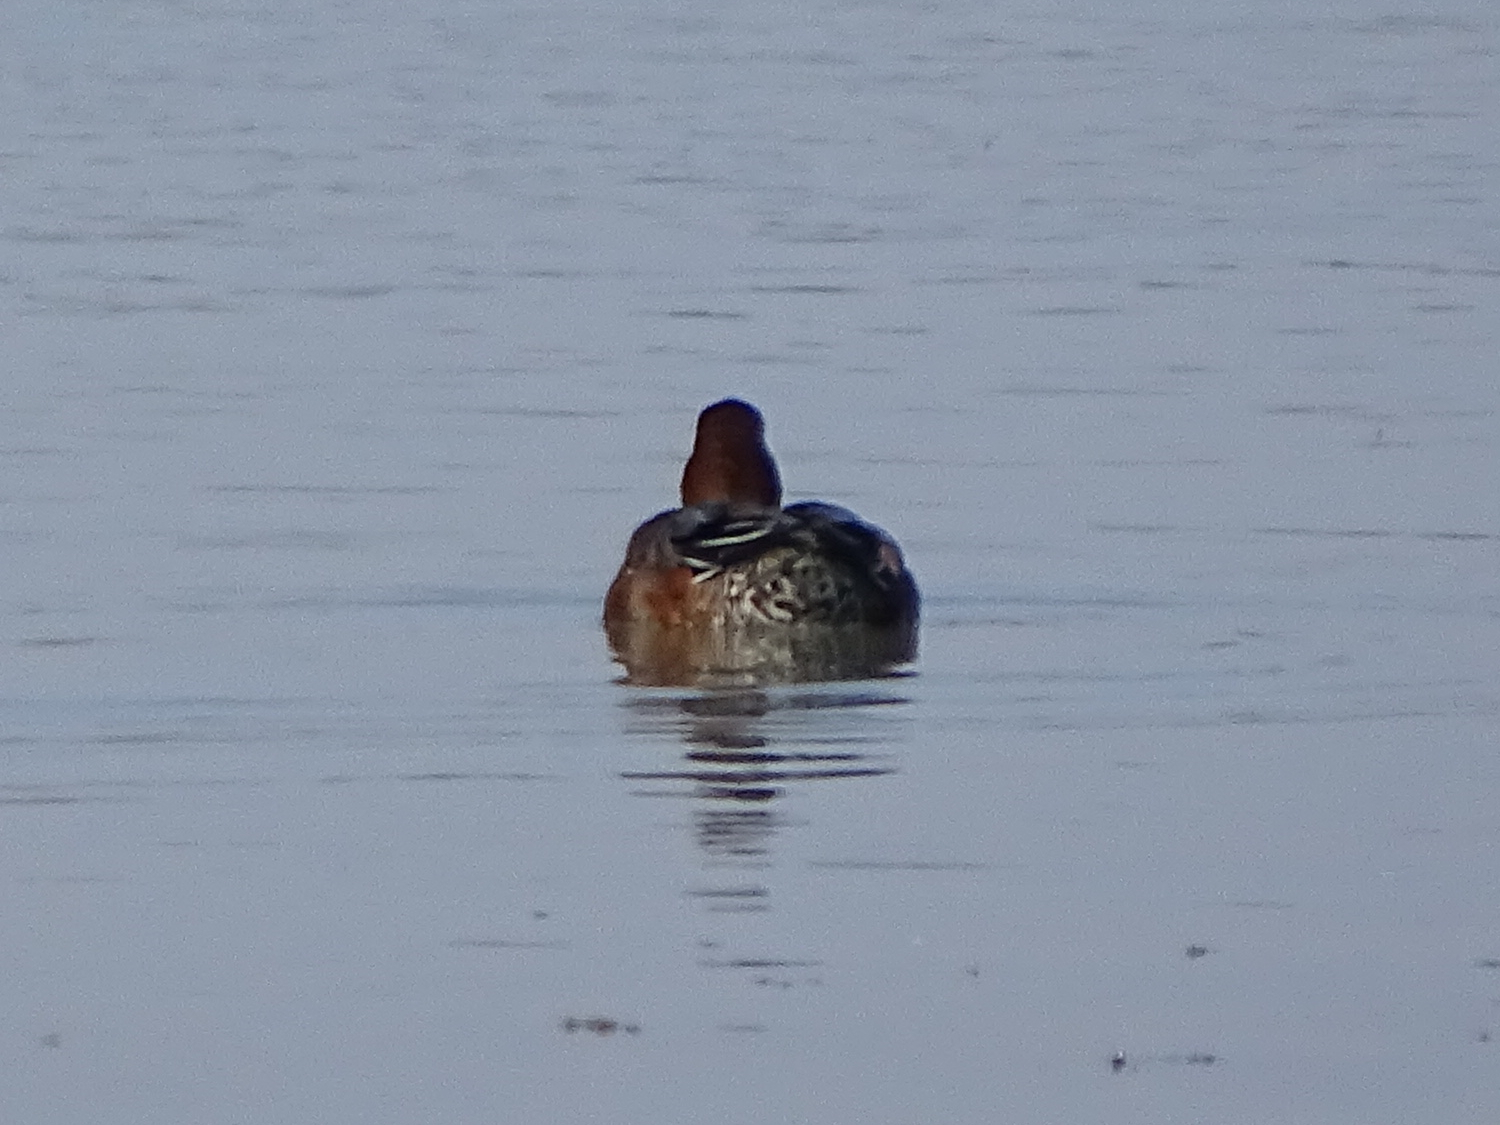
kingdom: Animalia
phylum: Chordata
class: Aves
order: Anseriformes
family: Anatidae
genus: Mareca
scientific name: Mareca penelope
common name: Eurasian wigeon
